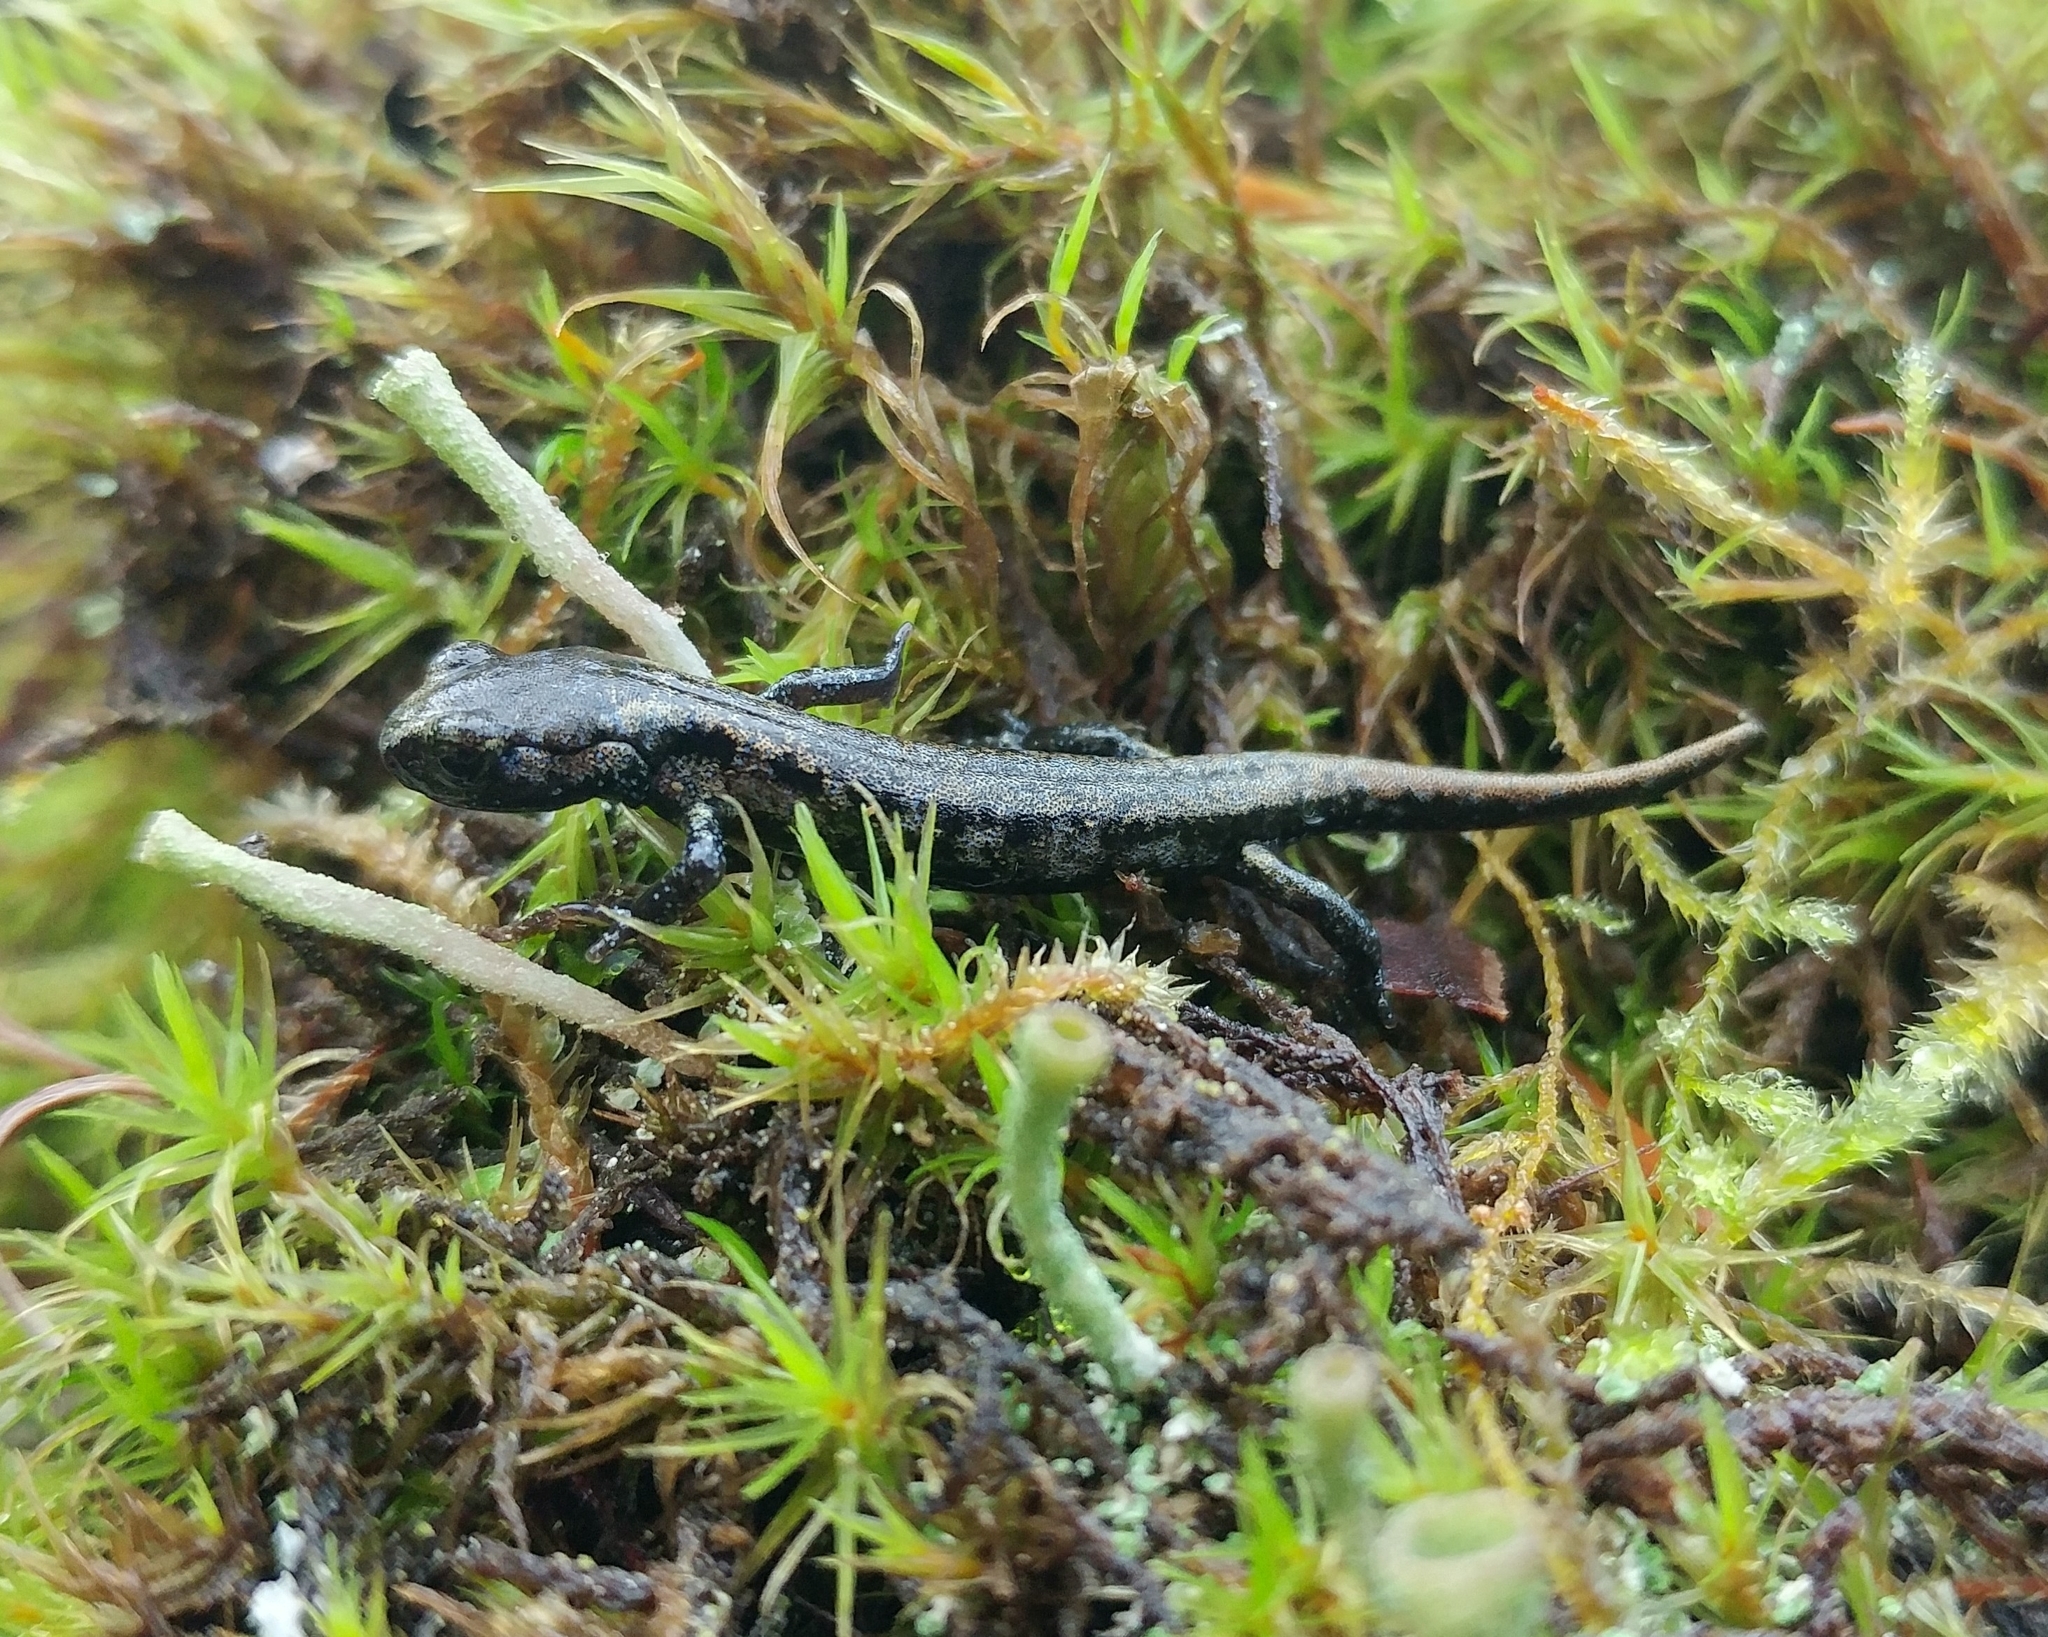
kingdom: Animalia
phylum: Chordata
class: Amphibia
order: Caudata
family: Plethodontidae
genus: Aneides
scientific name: Aneides ferreus
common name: Clouded salamander
